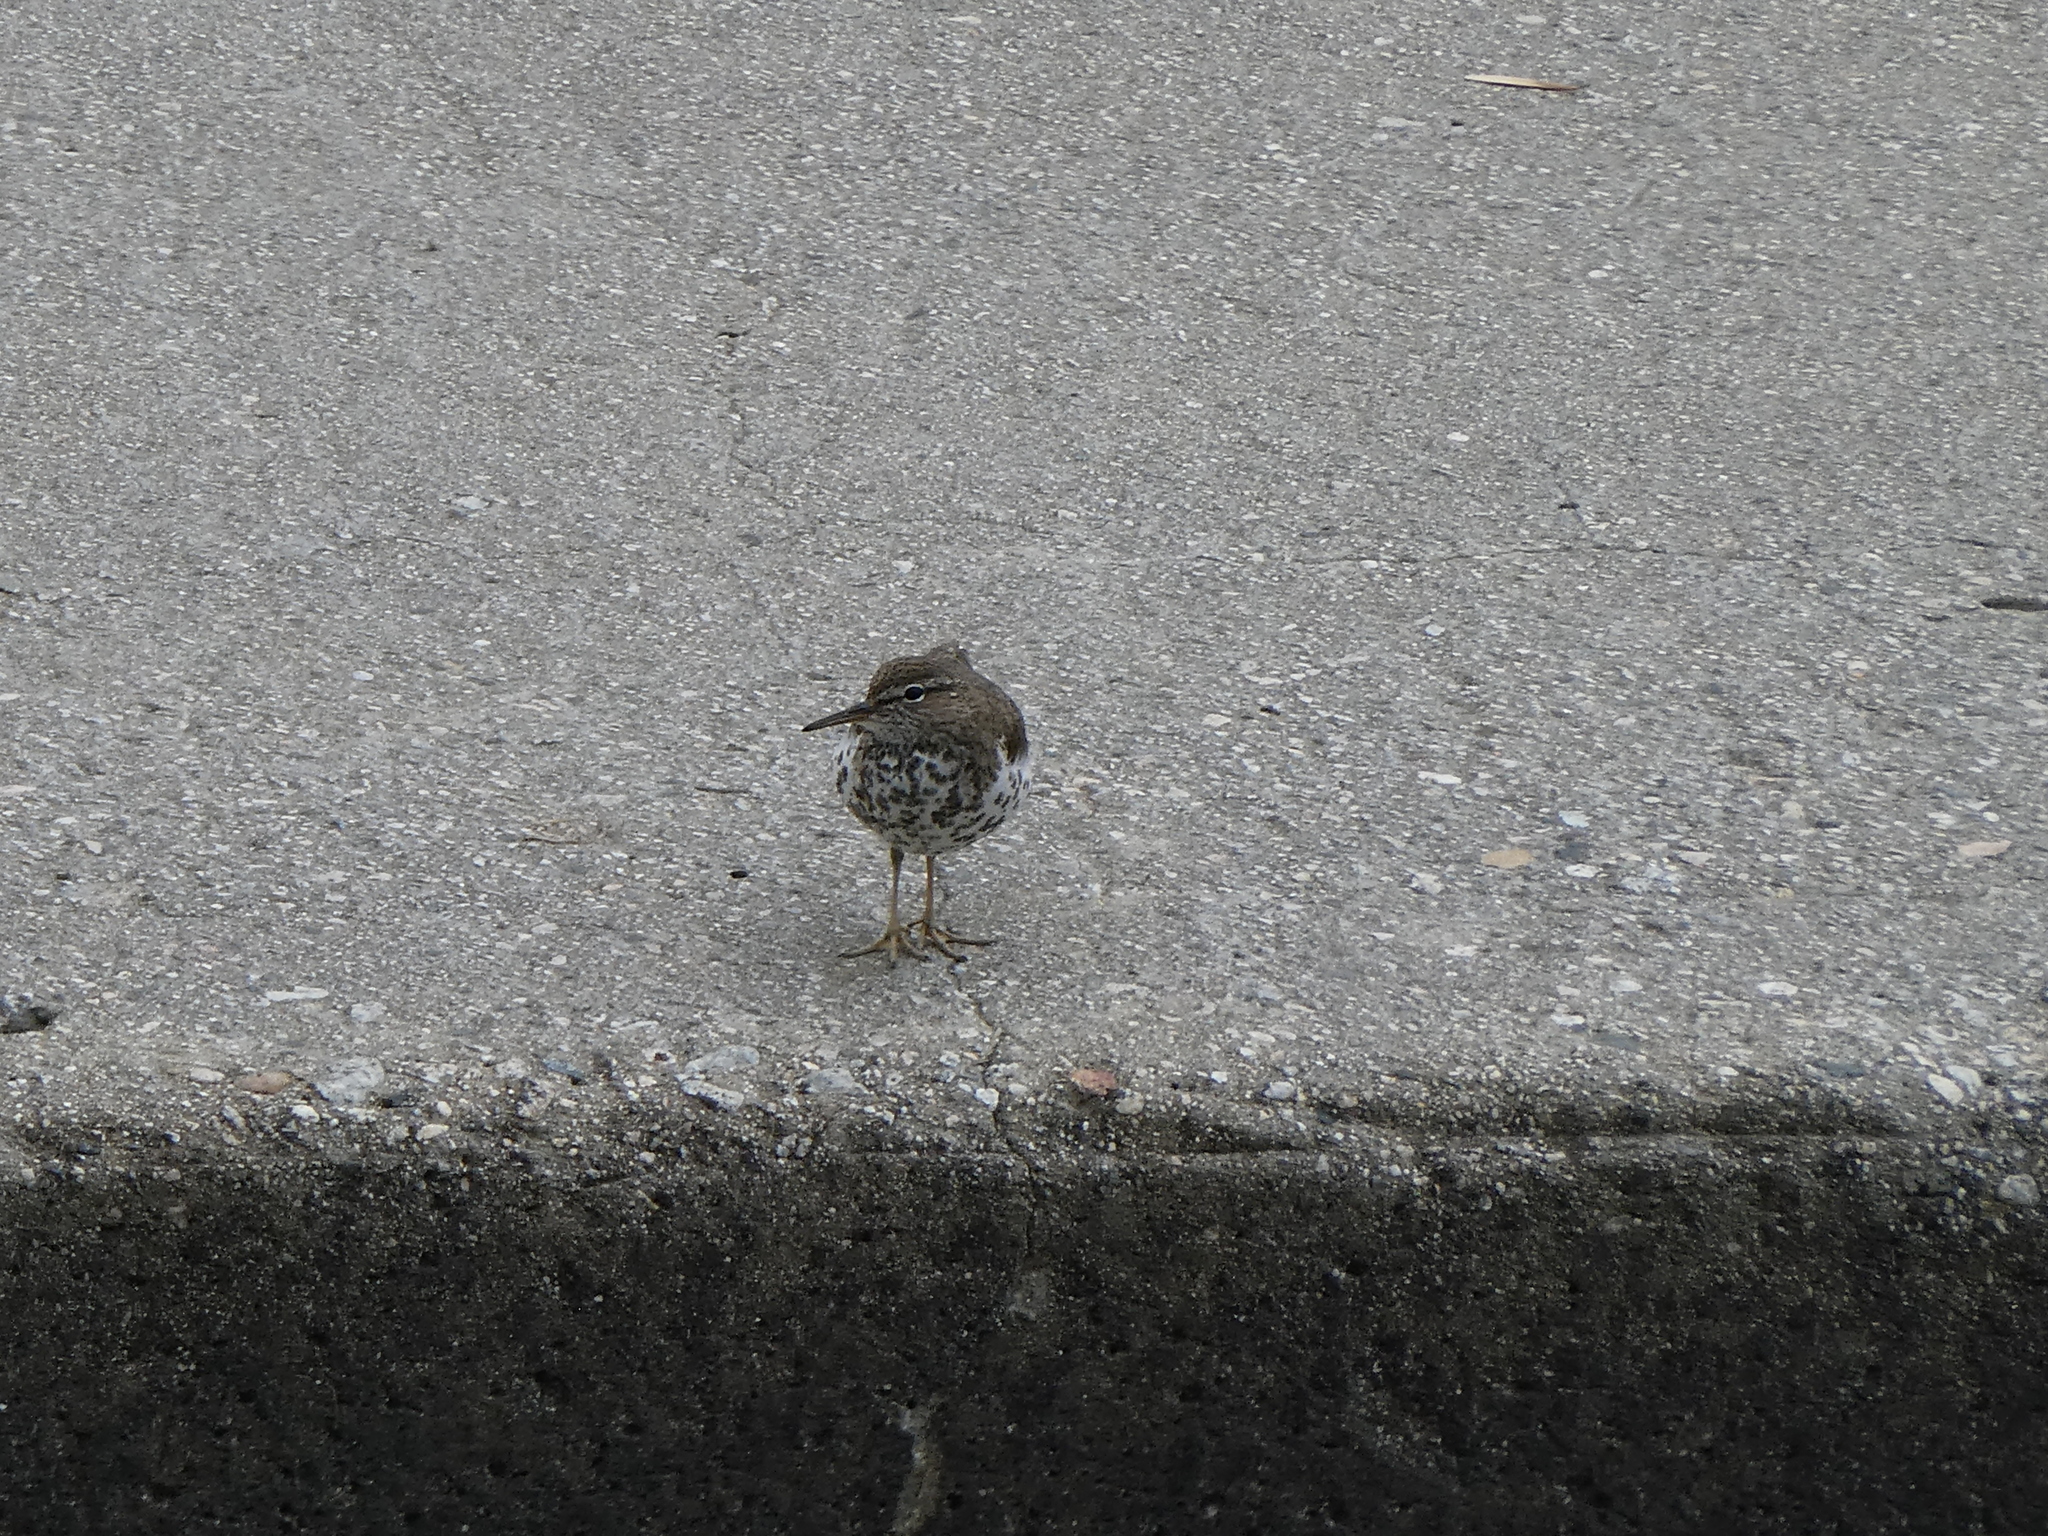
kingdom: Animalia
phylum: Chordata
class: Aves
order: Charadriiformes
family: Scolopacidae
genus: Actitis
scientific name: Actitis macularius
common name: Spotted sandpiper
